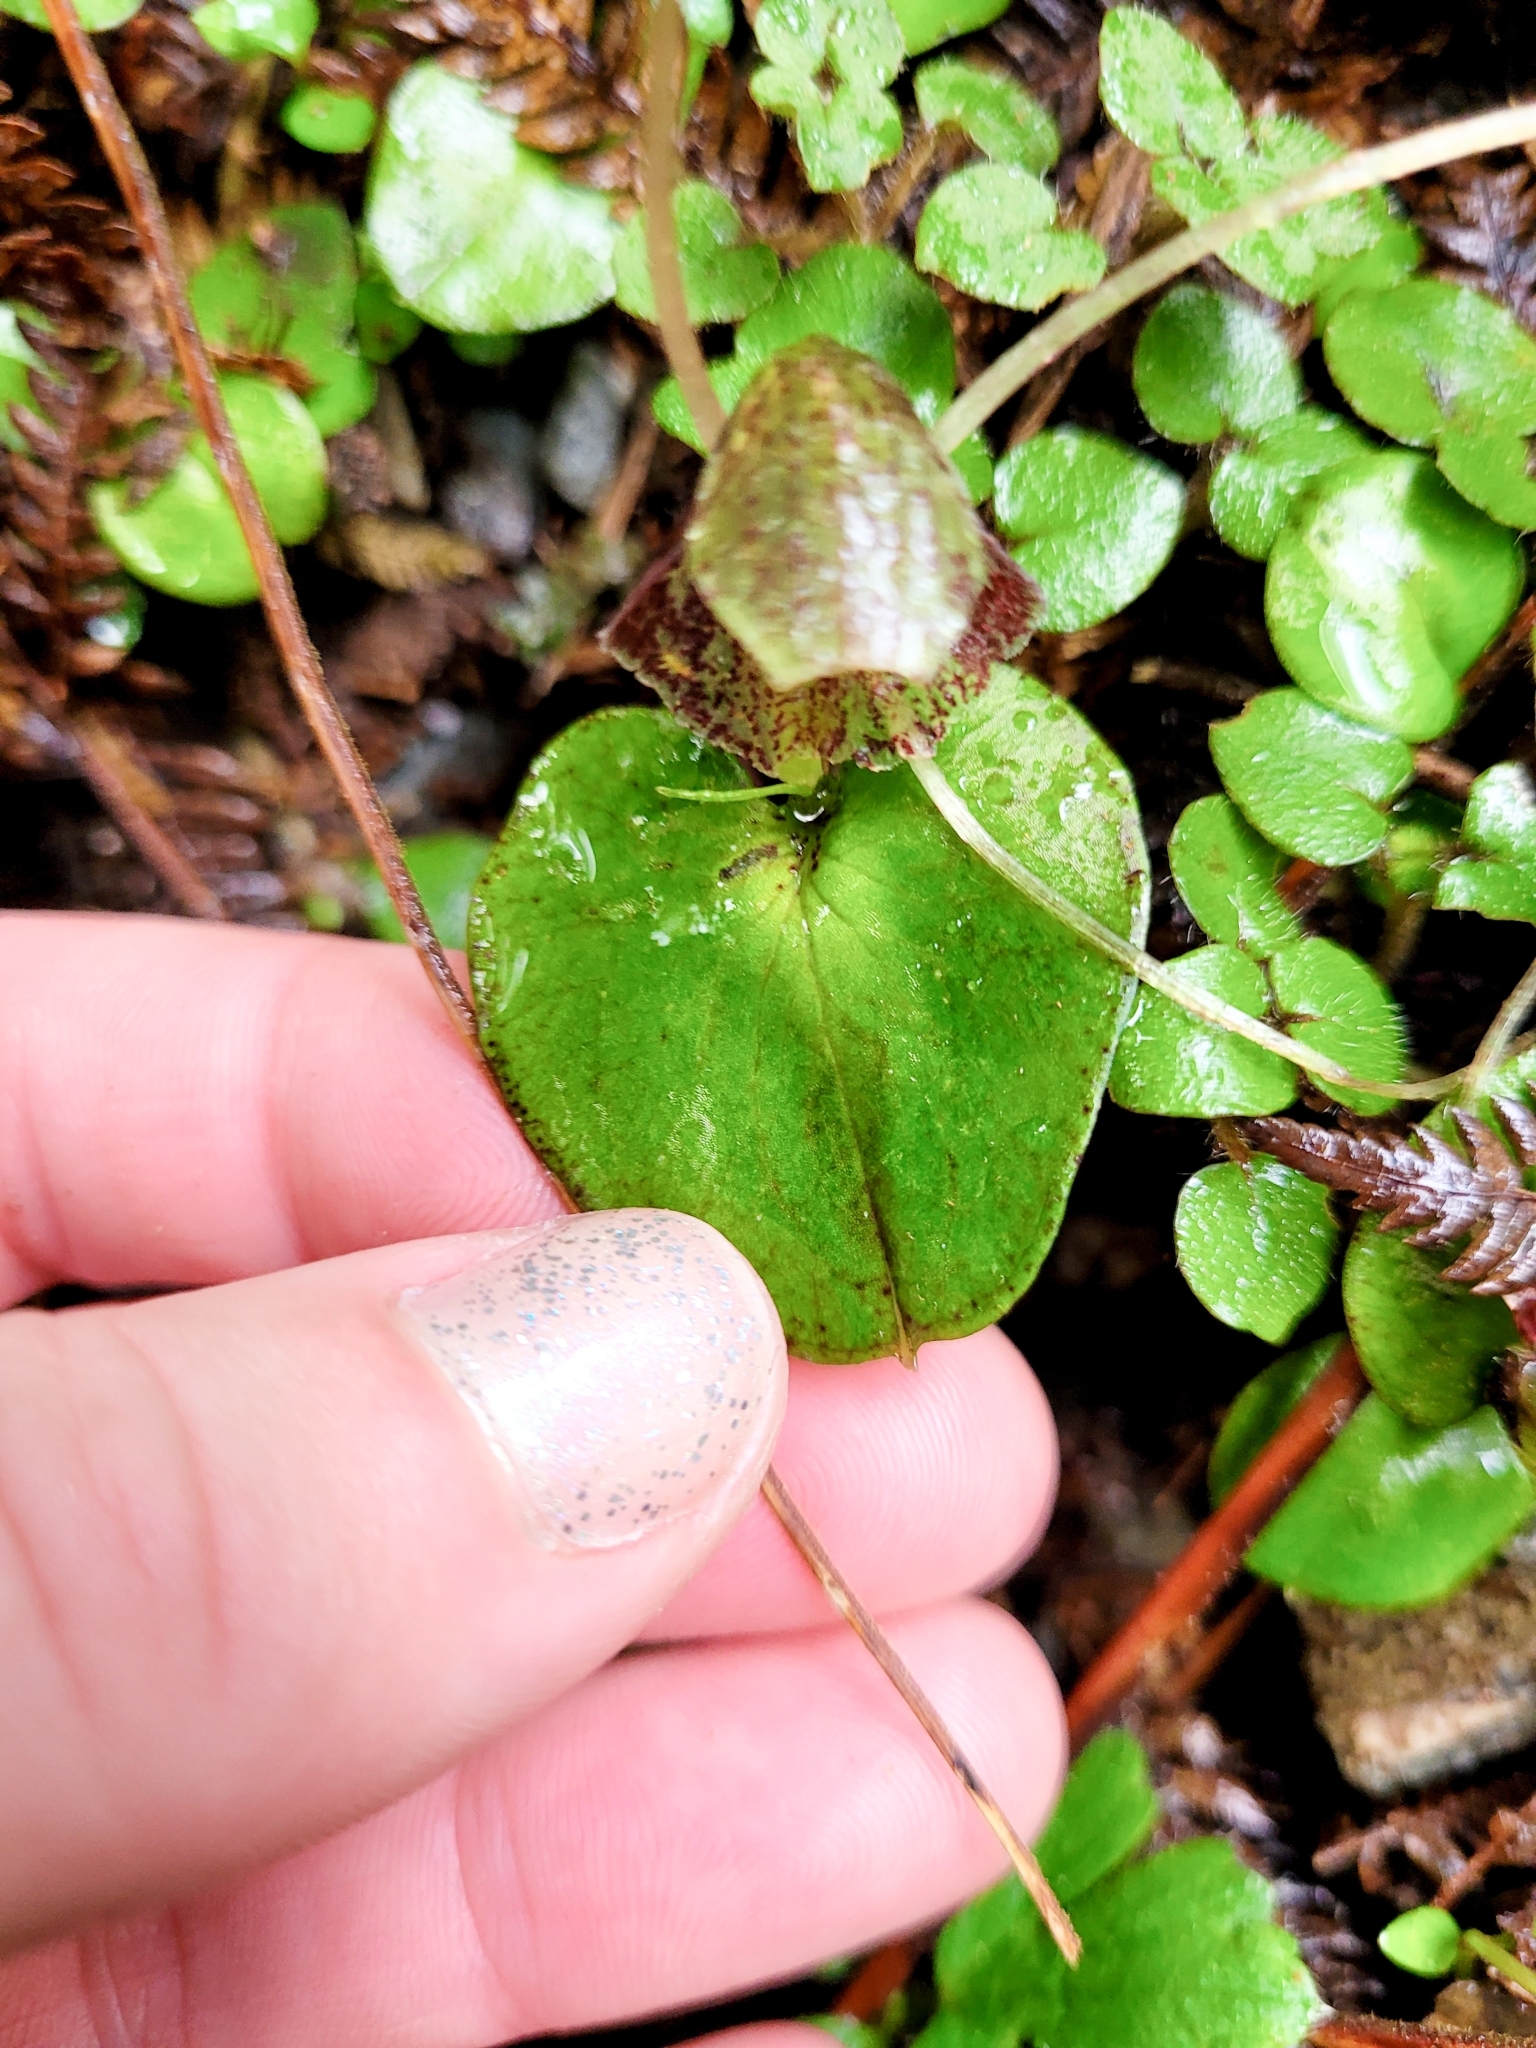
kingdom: Plantae
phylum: Tracheophyta
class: Liliopsida
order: Asparagales
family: Orchidaceae
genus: Corybas
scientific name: Corybas hatchii
